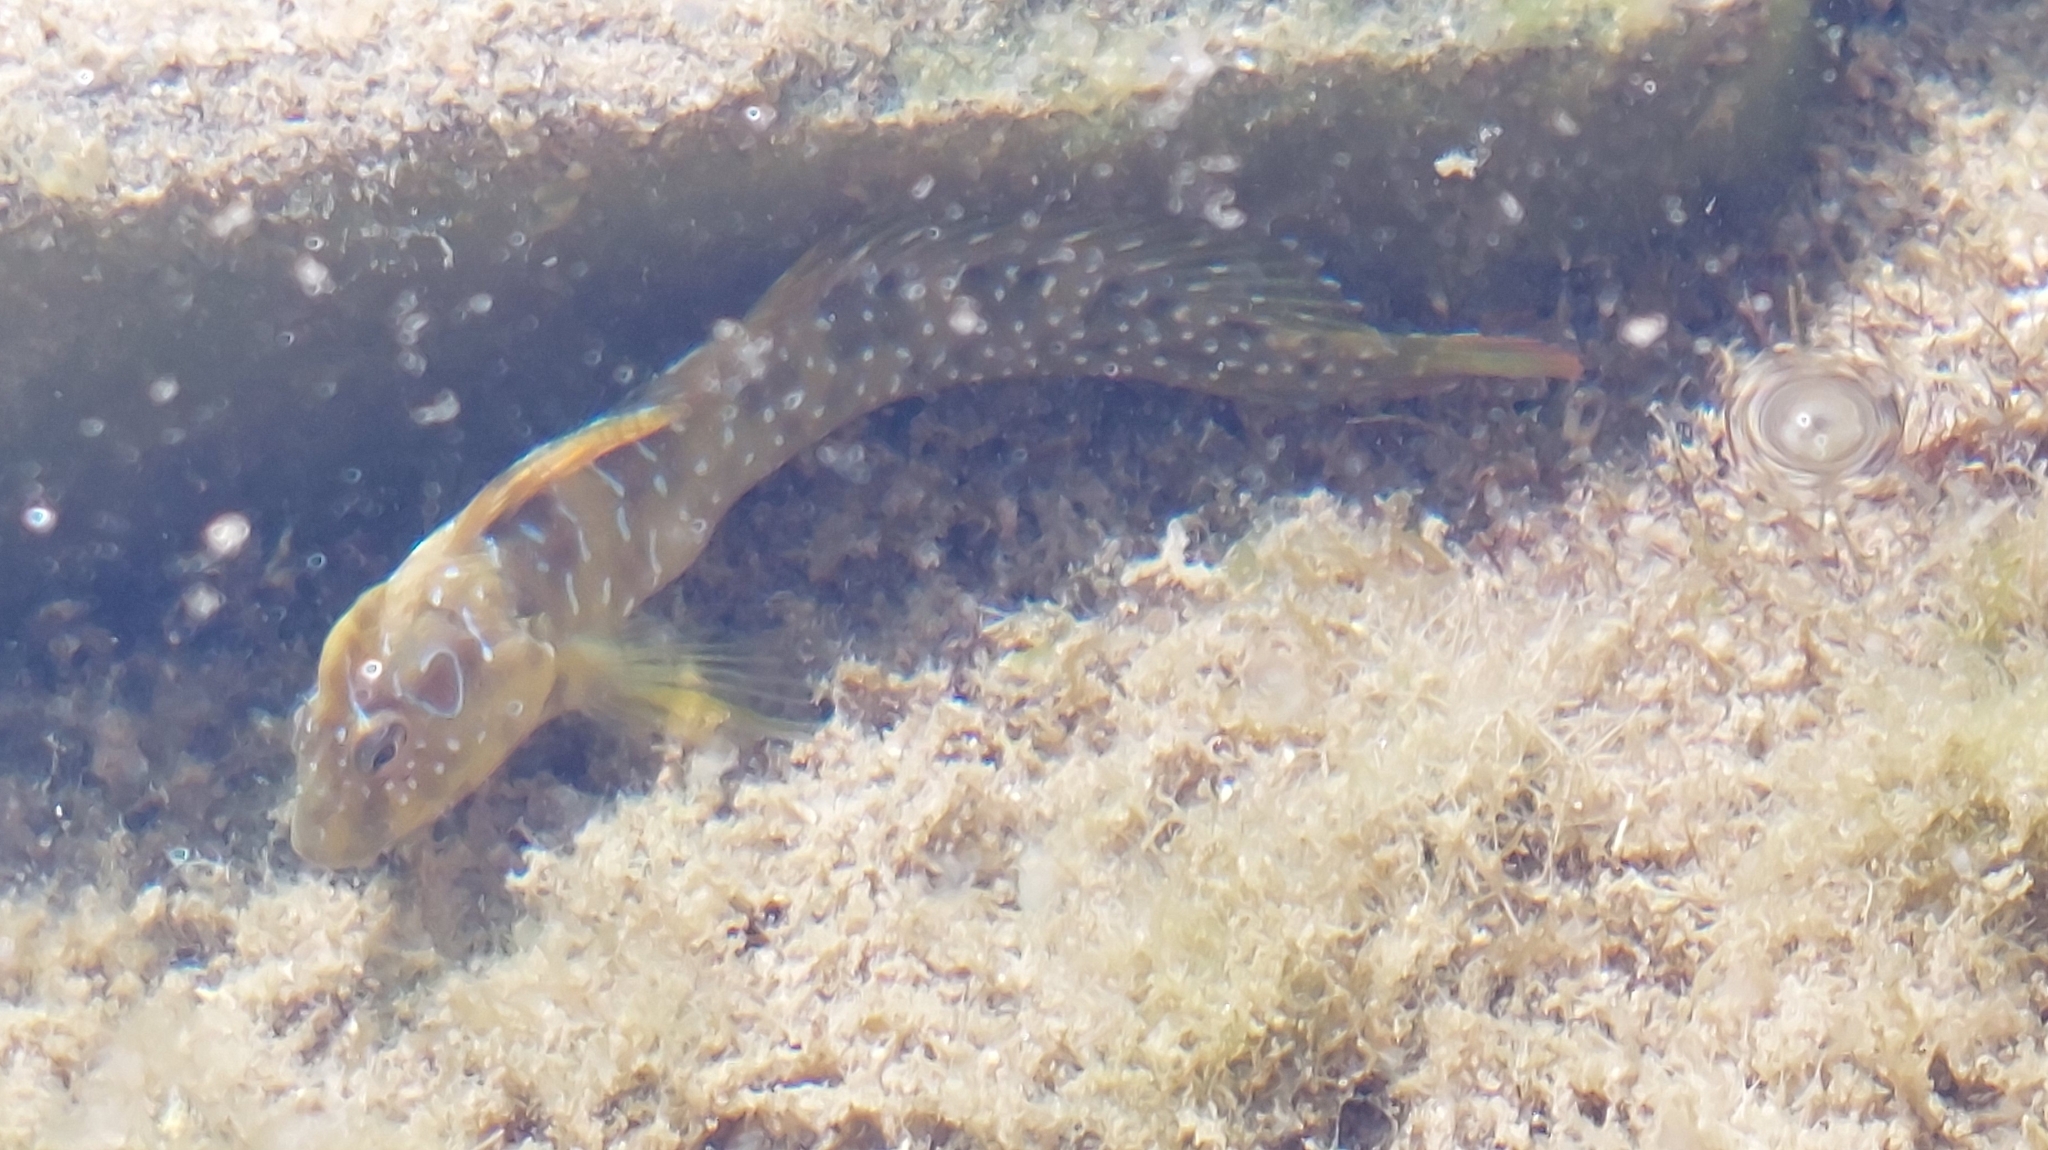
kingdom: Animalia
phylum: Chordata
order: Perciformes
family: Blenniidae
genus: Salaria
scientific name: Salaria pavo
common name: Peacock blenny
